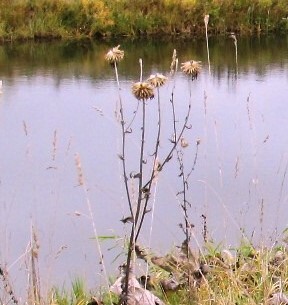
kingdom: Plantae
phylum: Tracheophyta
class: Magnoliopsida
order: Asterales
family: Asteraceae
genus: Echinops
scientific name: Echinops sphaerocephalus
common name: Glandular globe-thistle
